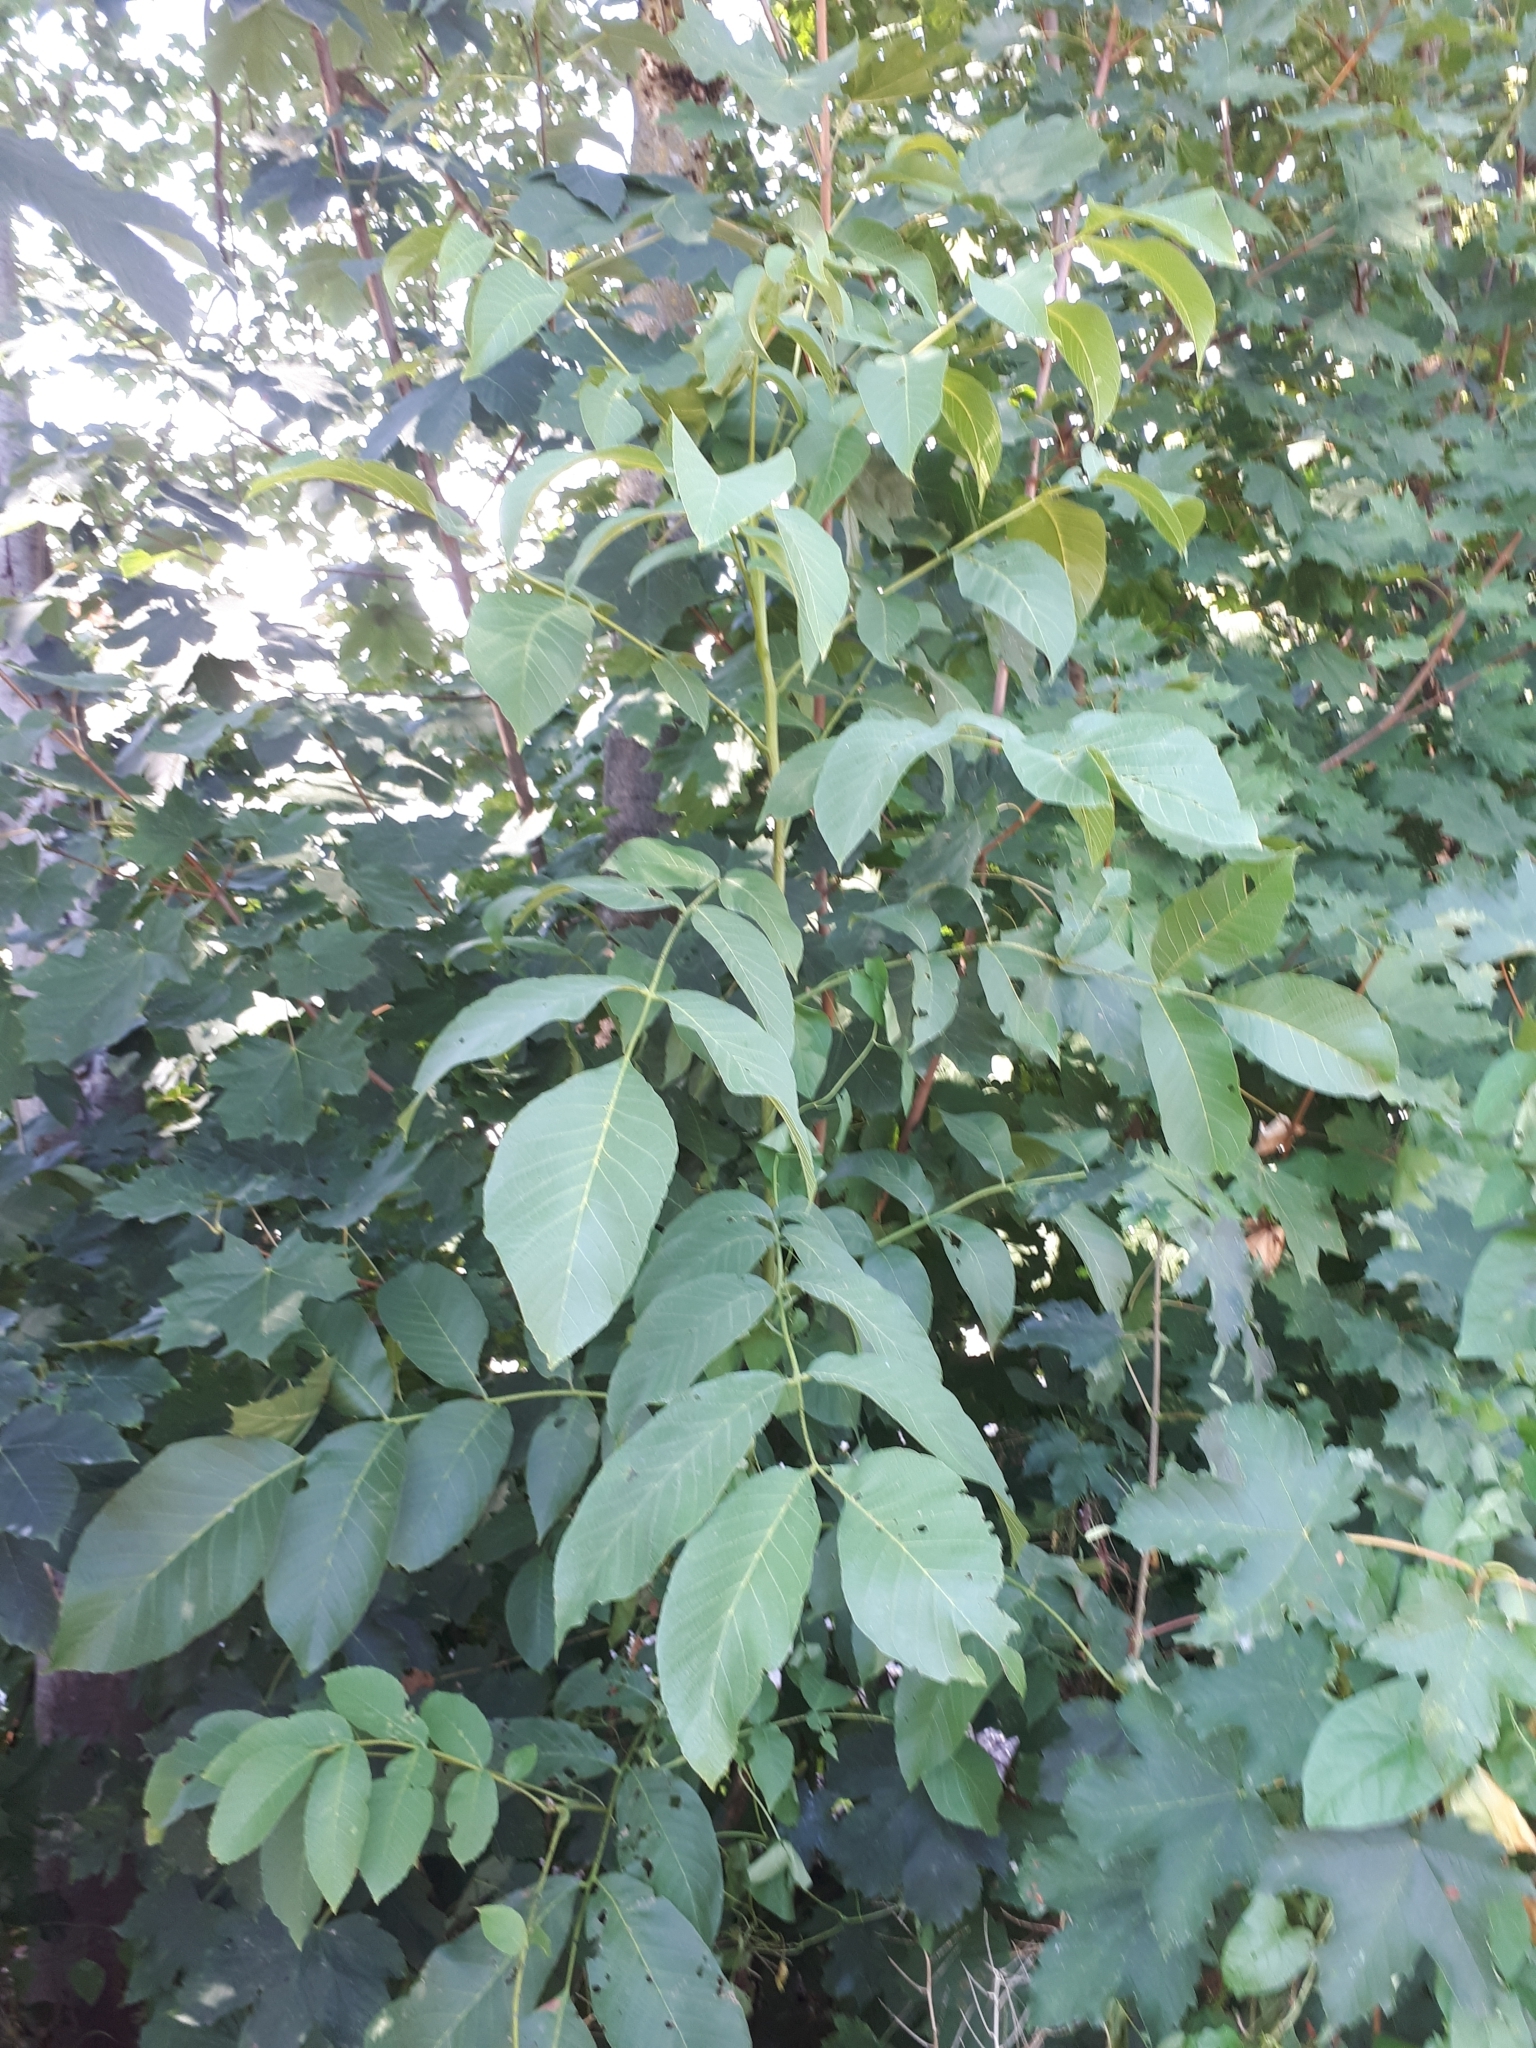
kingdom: Plantae
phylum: Tracheophyta
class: Magnoliopsida
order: Fagales
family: Juglandaceae
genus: Juglans
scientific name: Juglans regia
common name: Walnut
